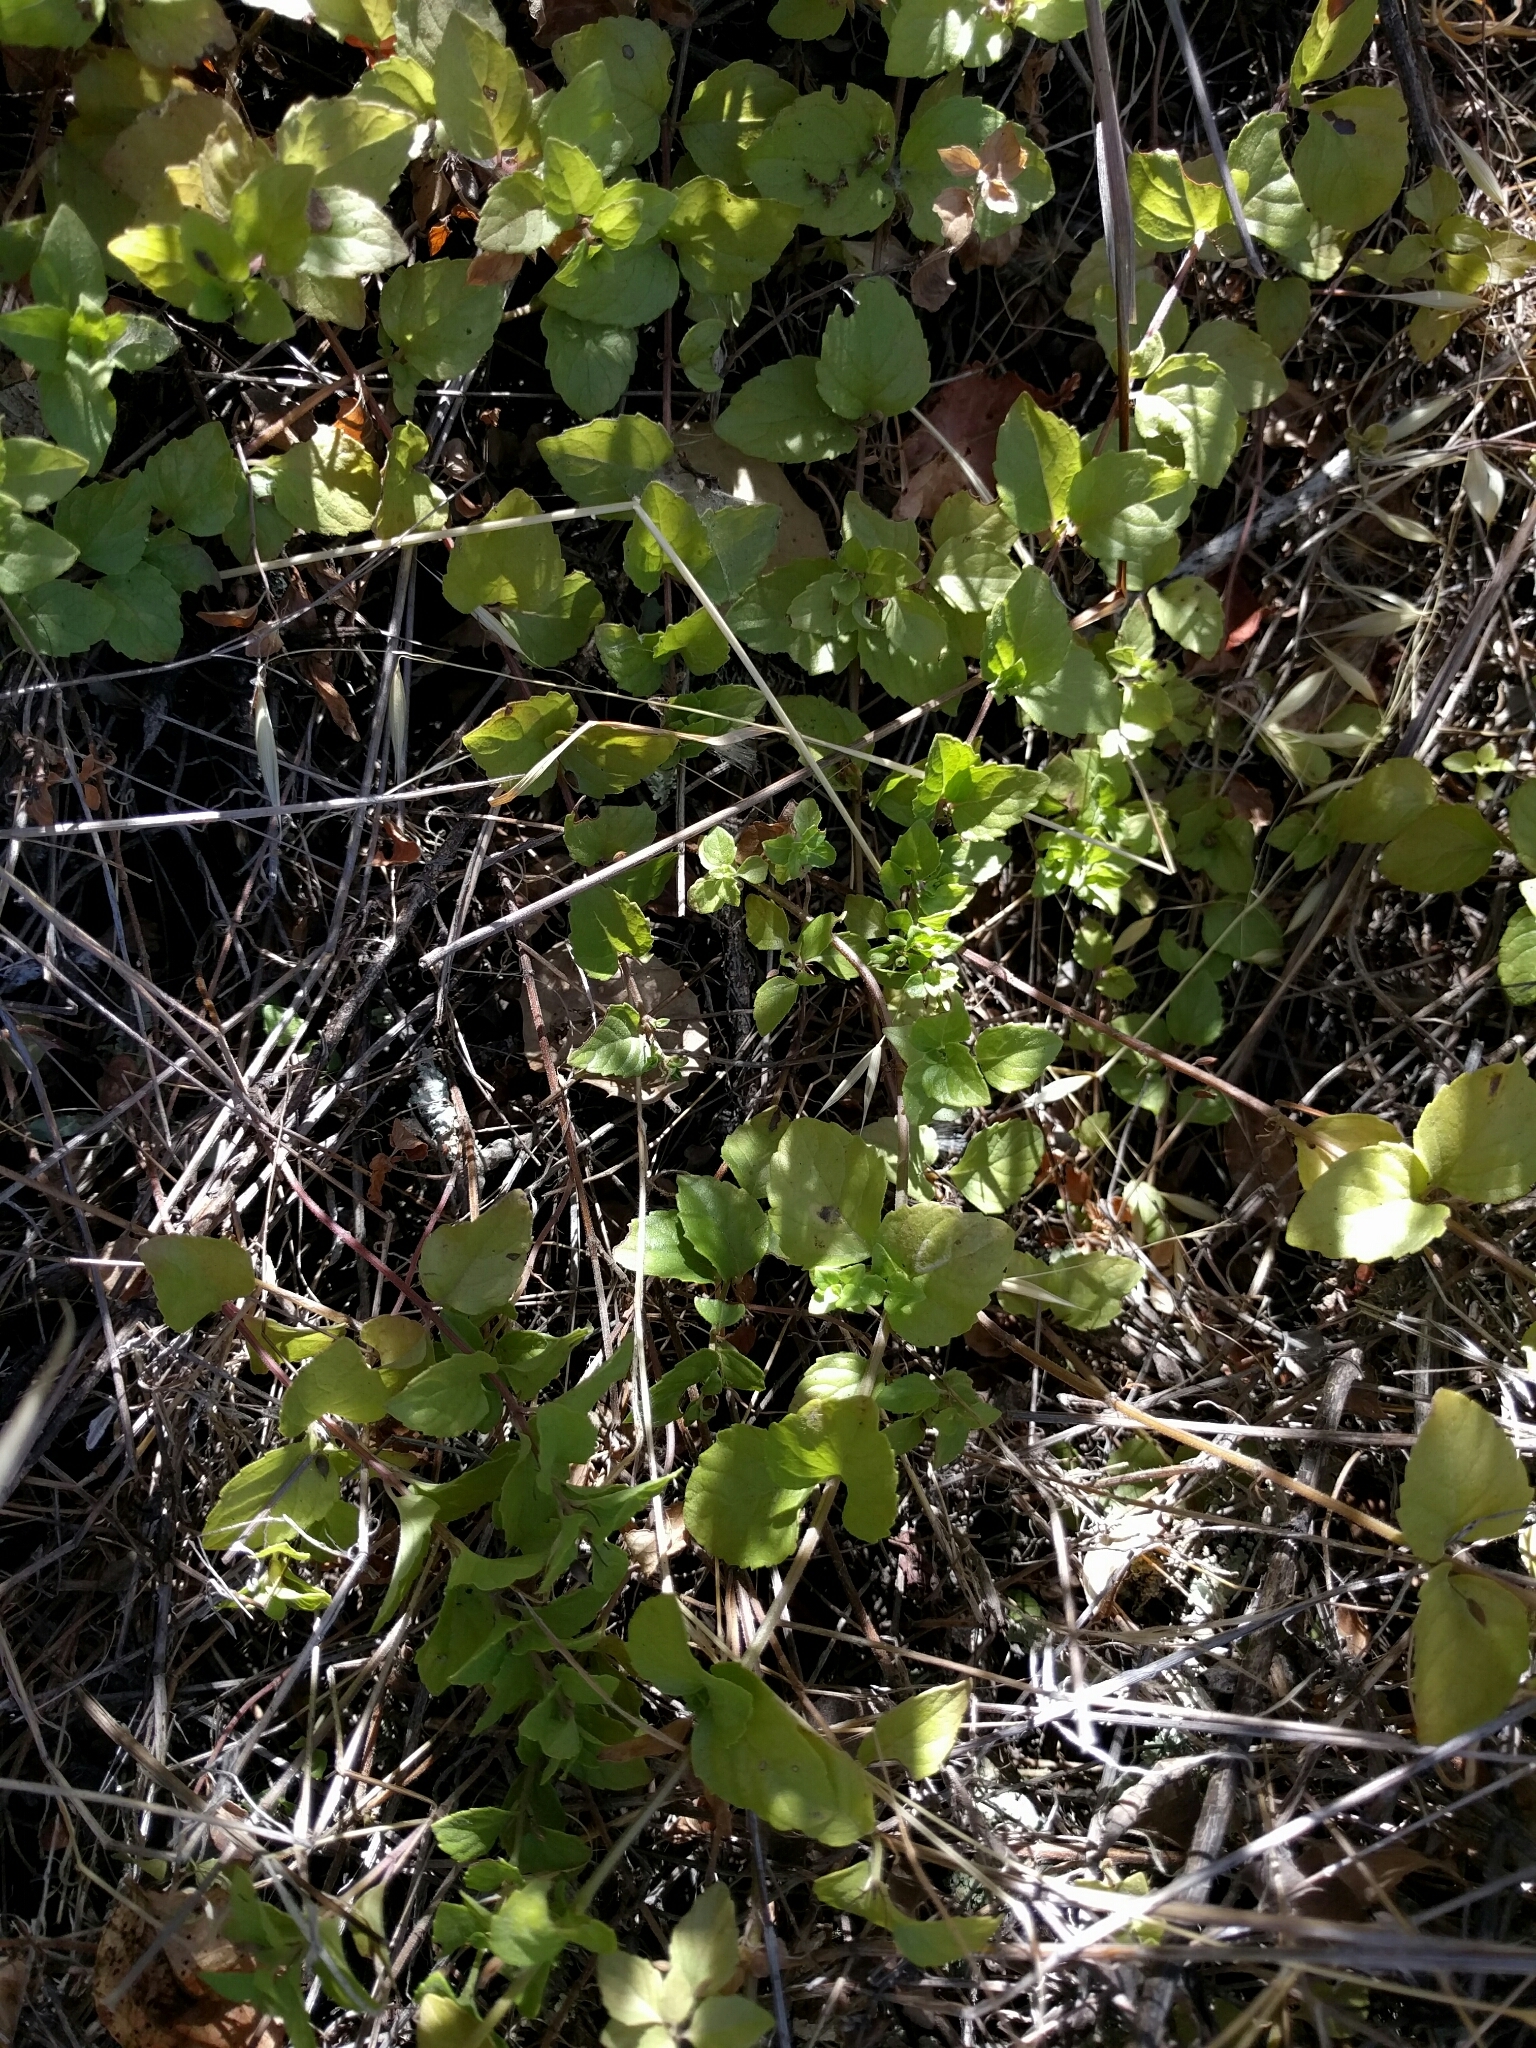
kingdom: Plantae
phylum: Tracheophyta
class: Magnoliopsida
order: Lamiales
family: Lamiaceae
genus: Micromeria
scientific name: Micromeria douglasii
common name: Yerba buena
